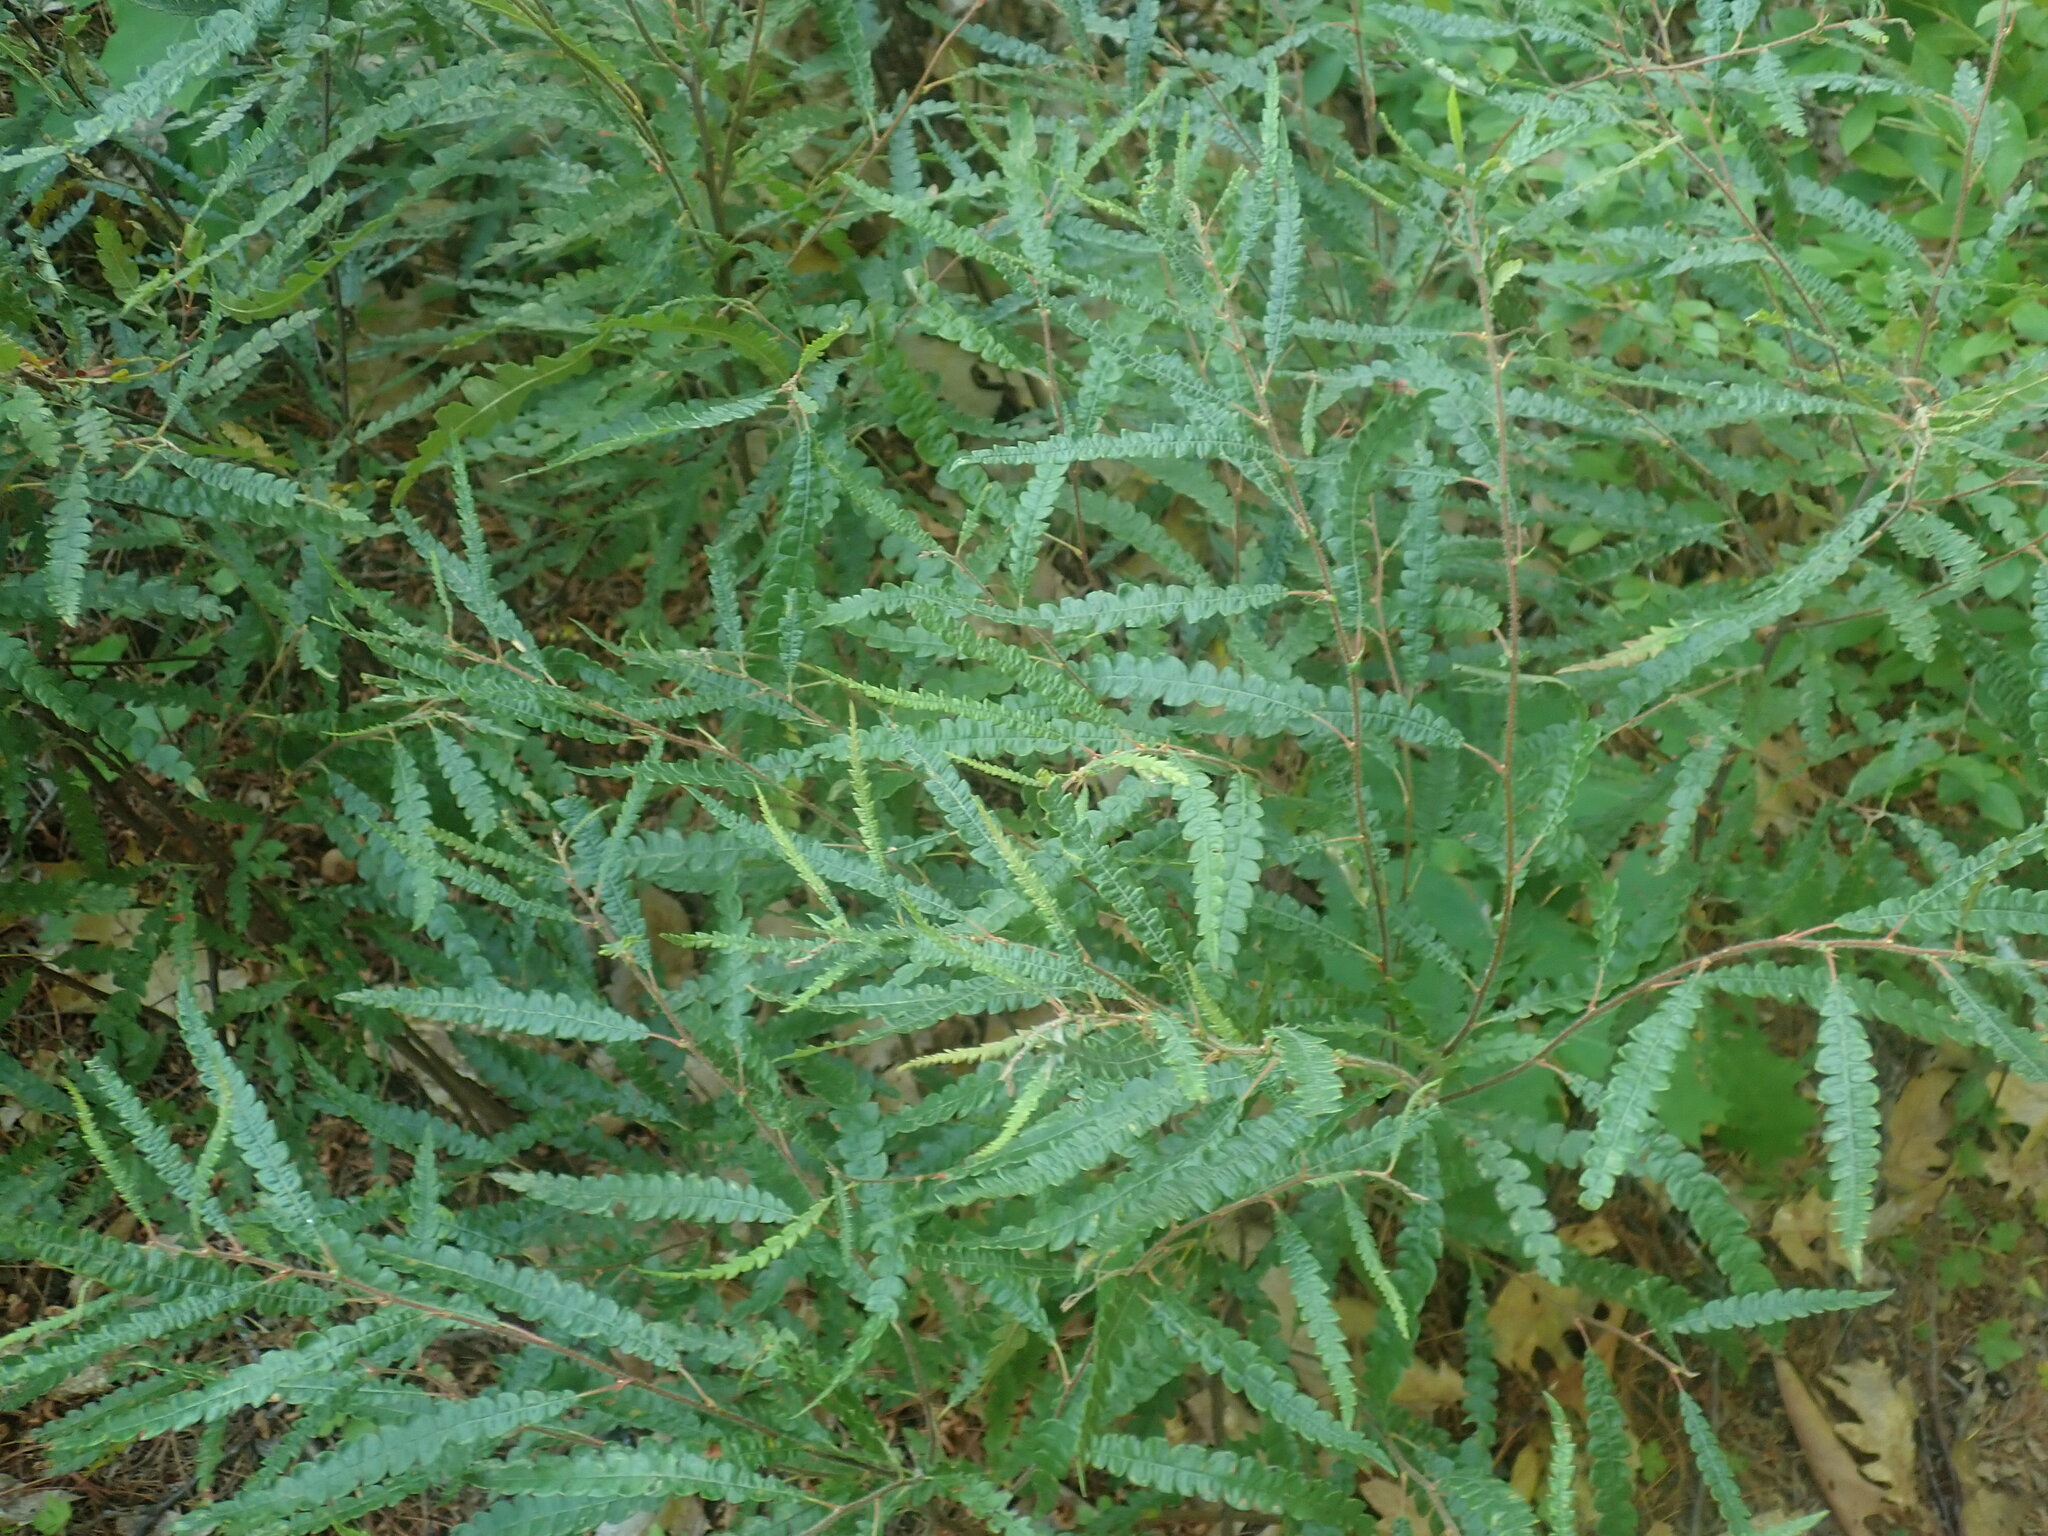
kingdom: Plantae
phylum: Tracheophyta
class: Magnoliopsida
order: Fagales
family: Myricaceae
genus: Comptonia
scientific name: Comptonia peregrina
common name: Sweet-fern
